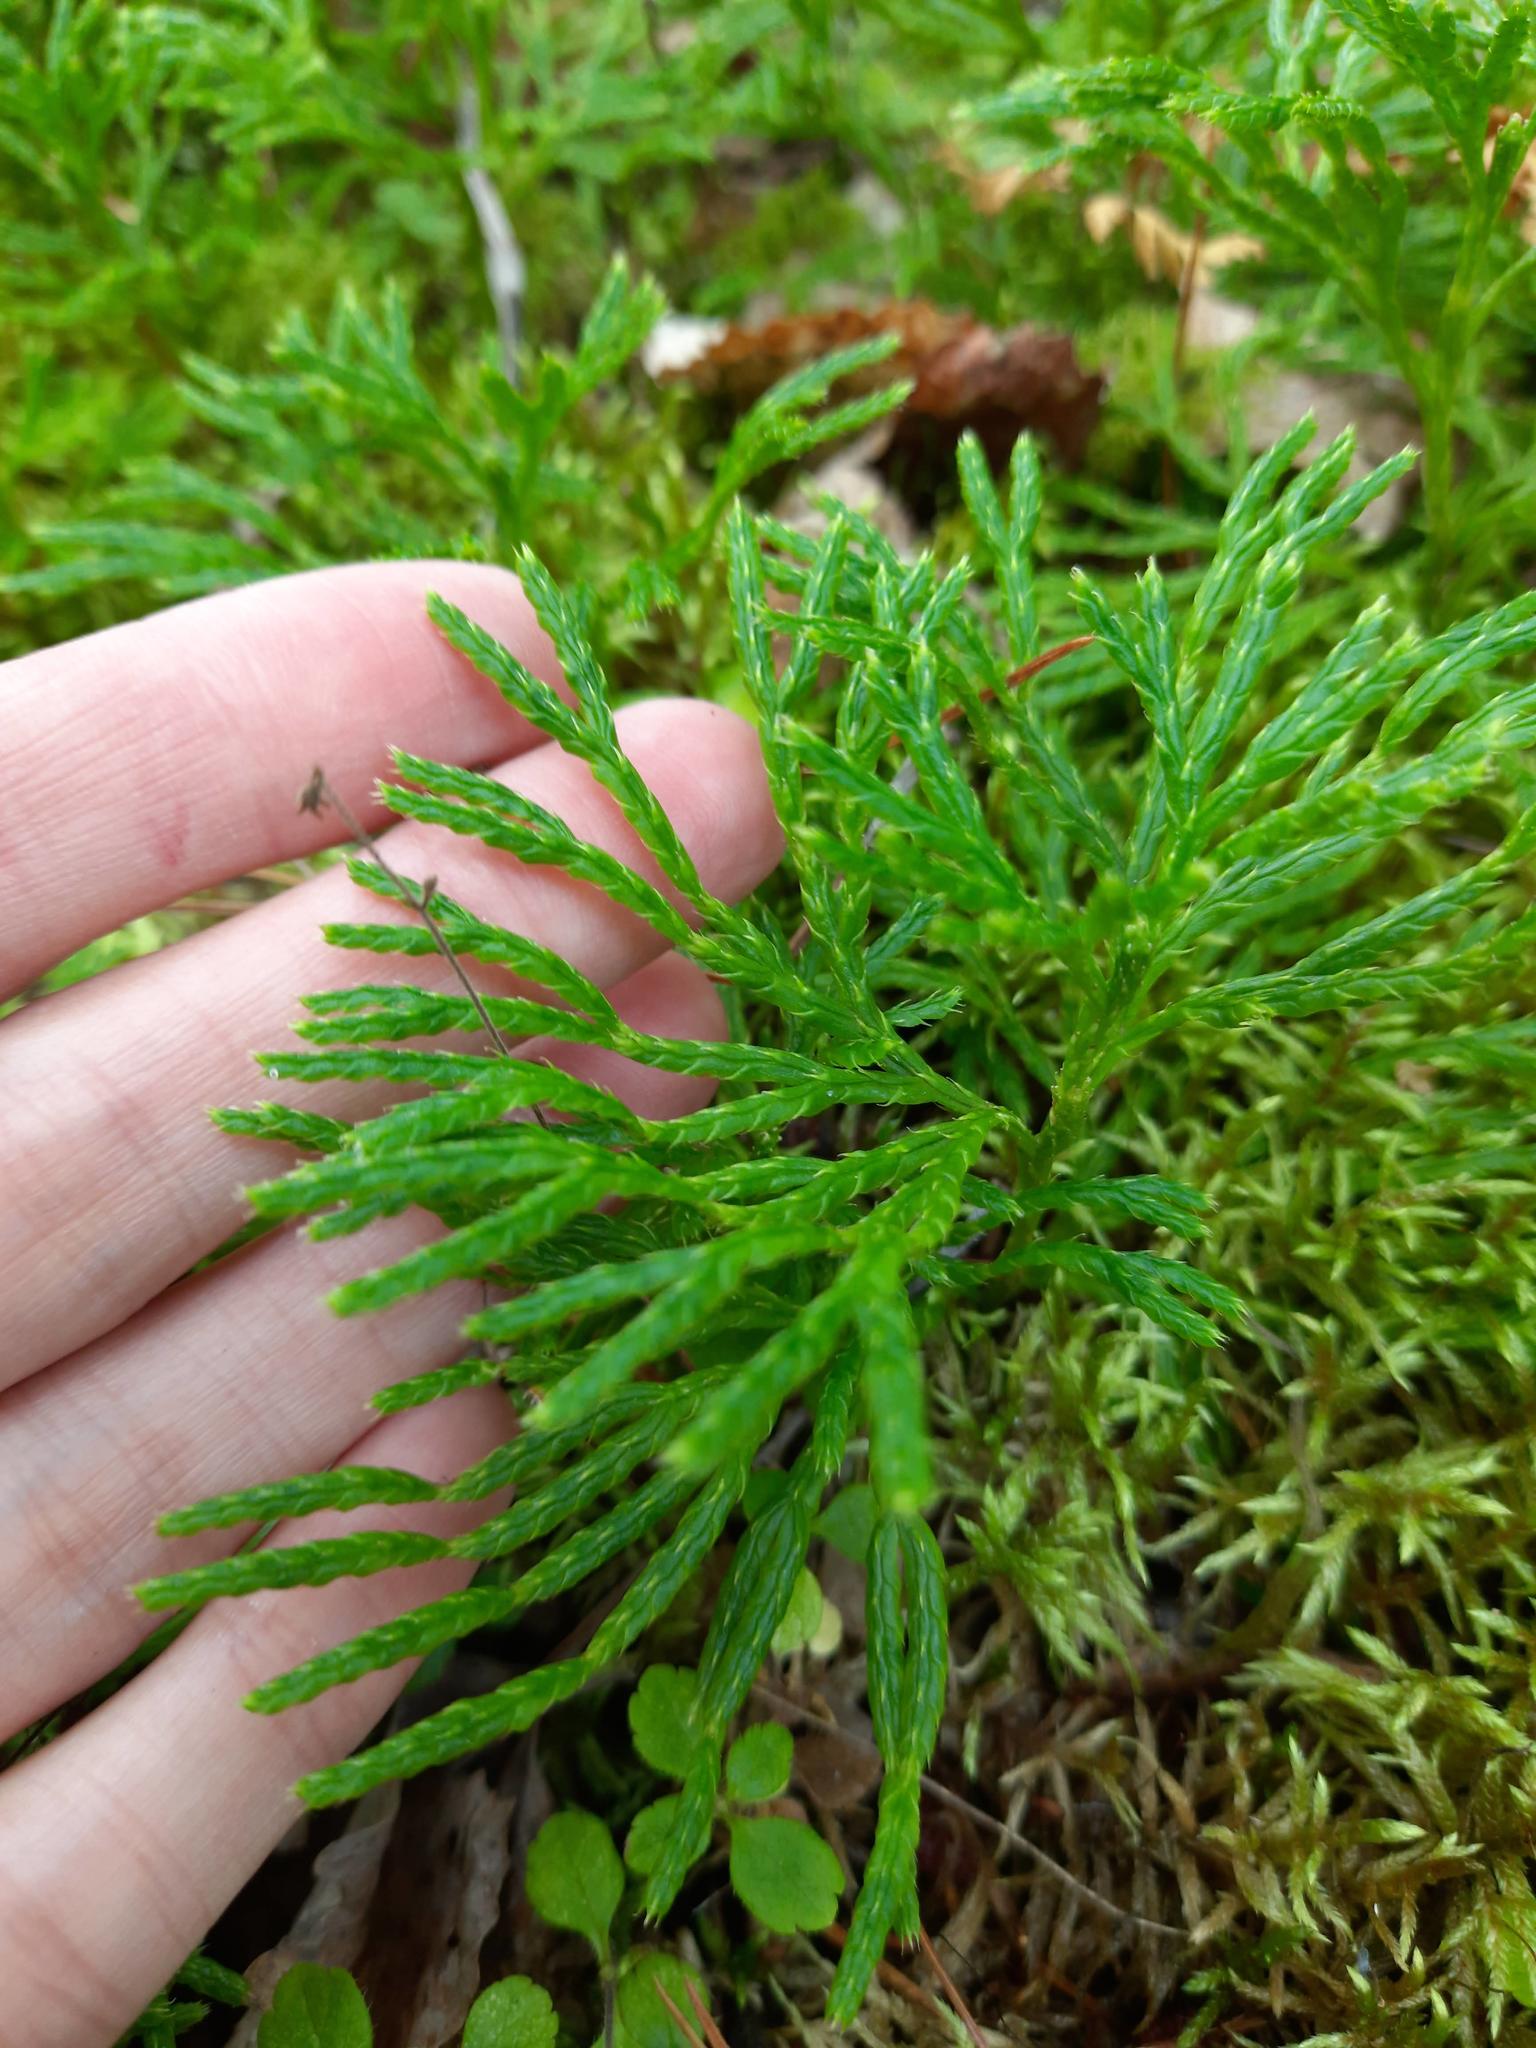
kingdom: Plantae
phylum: Tracheophyta
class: Lycopodiopsida
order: Lycopodiales
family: Lycopodiaceae
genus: Diphasiastrum
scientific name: Diphasiastrum complanatum
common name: Northern running-pine
